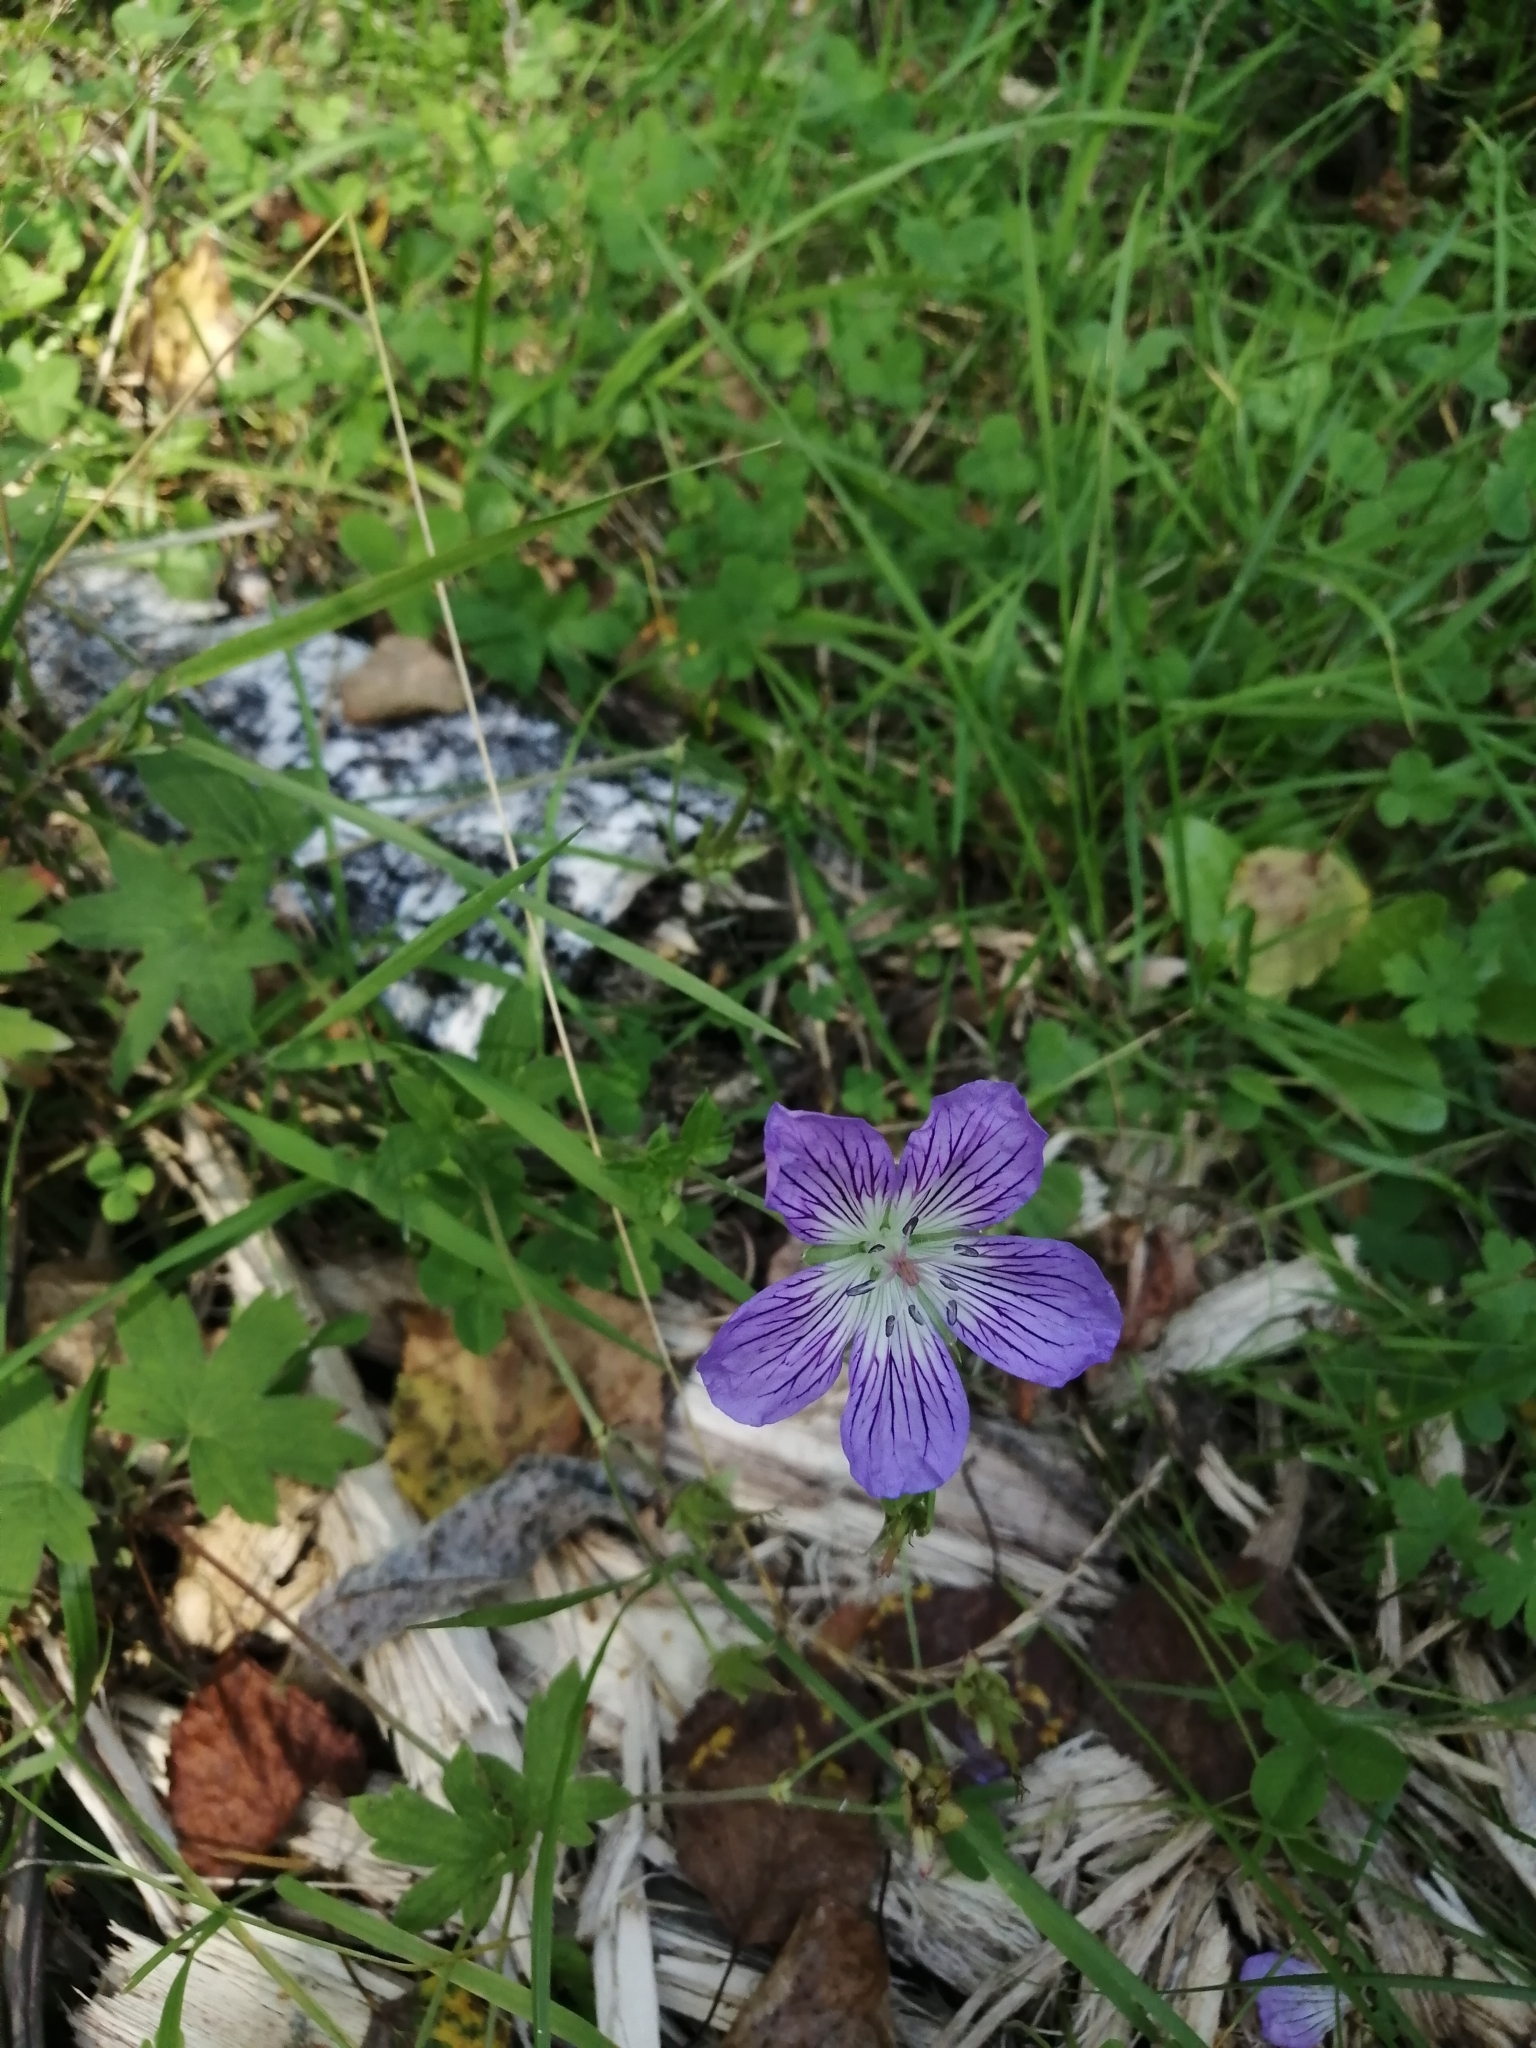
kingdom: Plantae
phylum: Tracheophyta
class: Magnoliopsida
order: Geraniales
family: Geraniaceae
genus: Geranium
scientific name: Geranium wlassovianum
